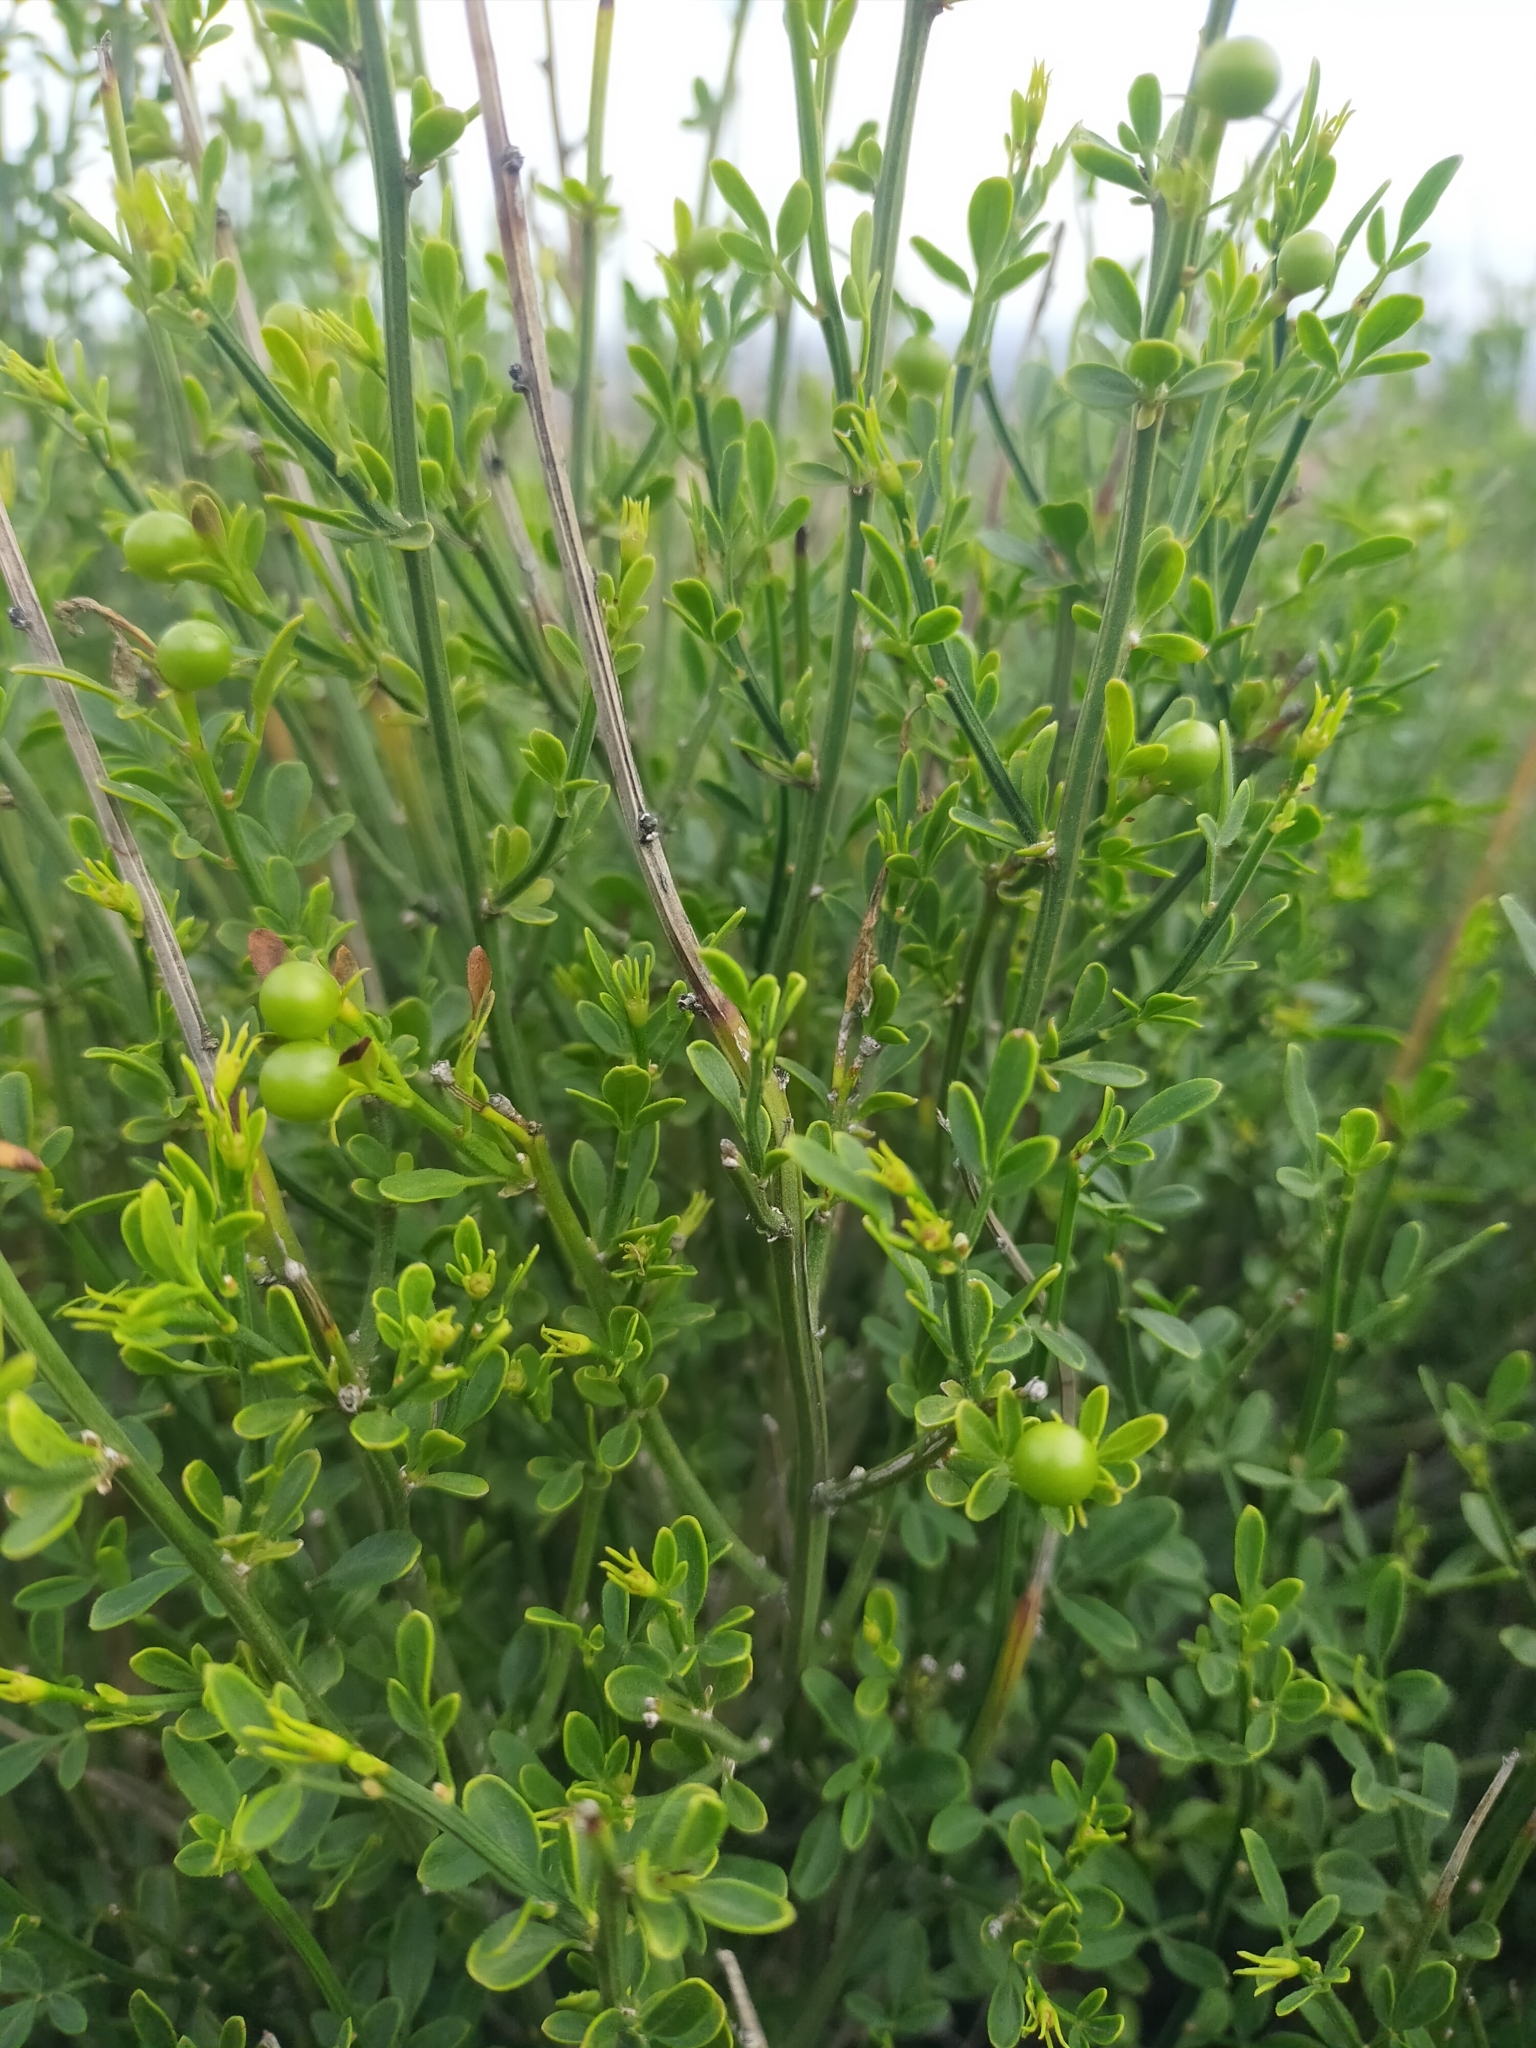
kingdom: Plantae
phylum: Tracheophyta
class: Magnoliopsida
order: Lamiales
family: Oleaceae
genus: Chrysojasminum
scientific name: Chrysojasminum fruticans
